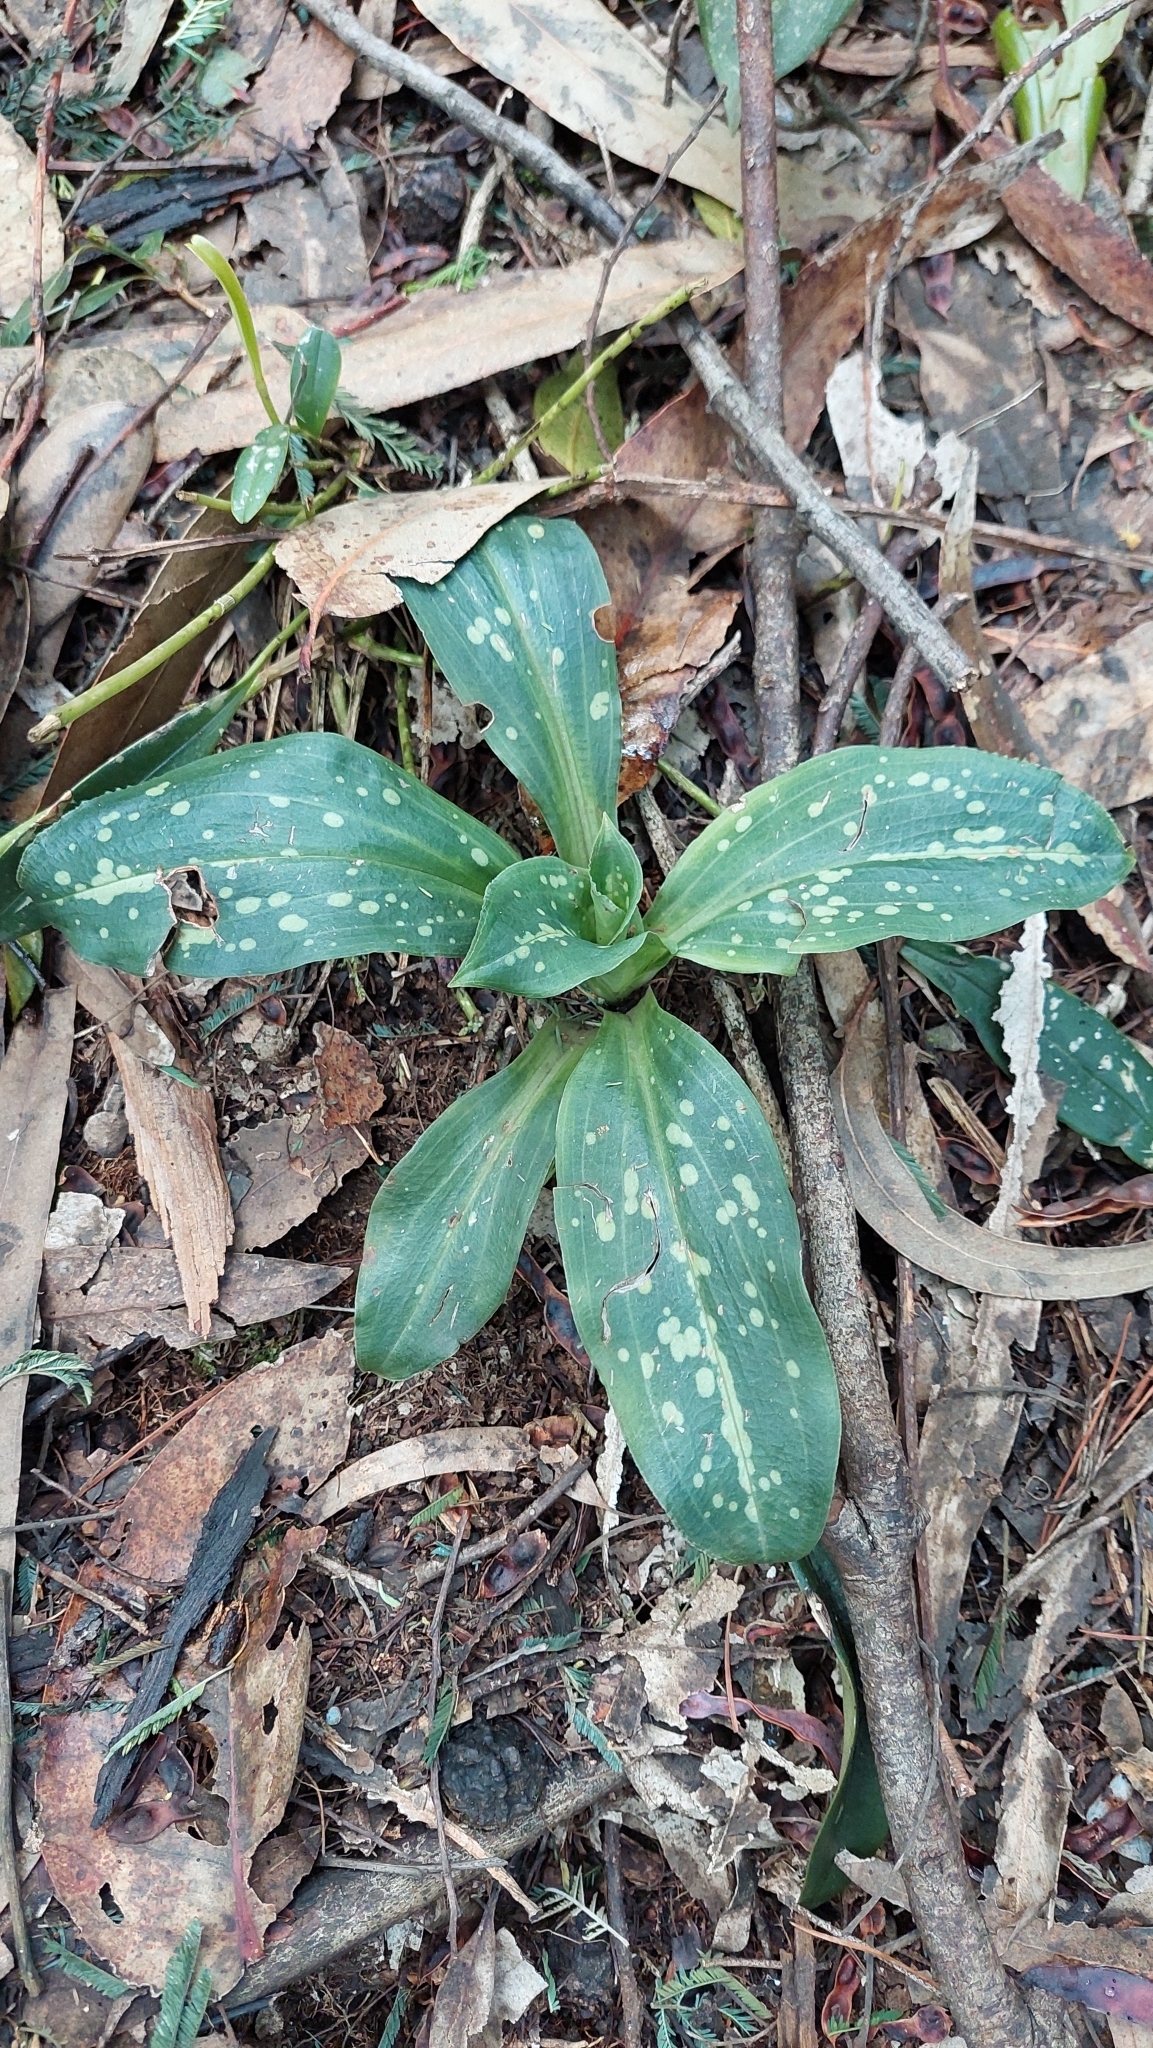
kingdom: Plantae
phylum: Tracheophyta
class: Liliopsida
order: Asparagales
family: Orchidaceae
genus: Stenorrhynchos
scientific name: Stenorrhynchos albidomaculatum
